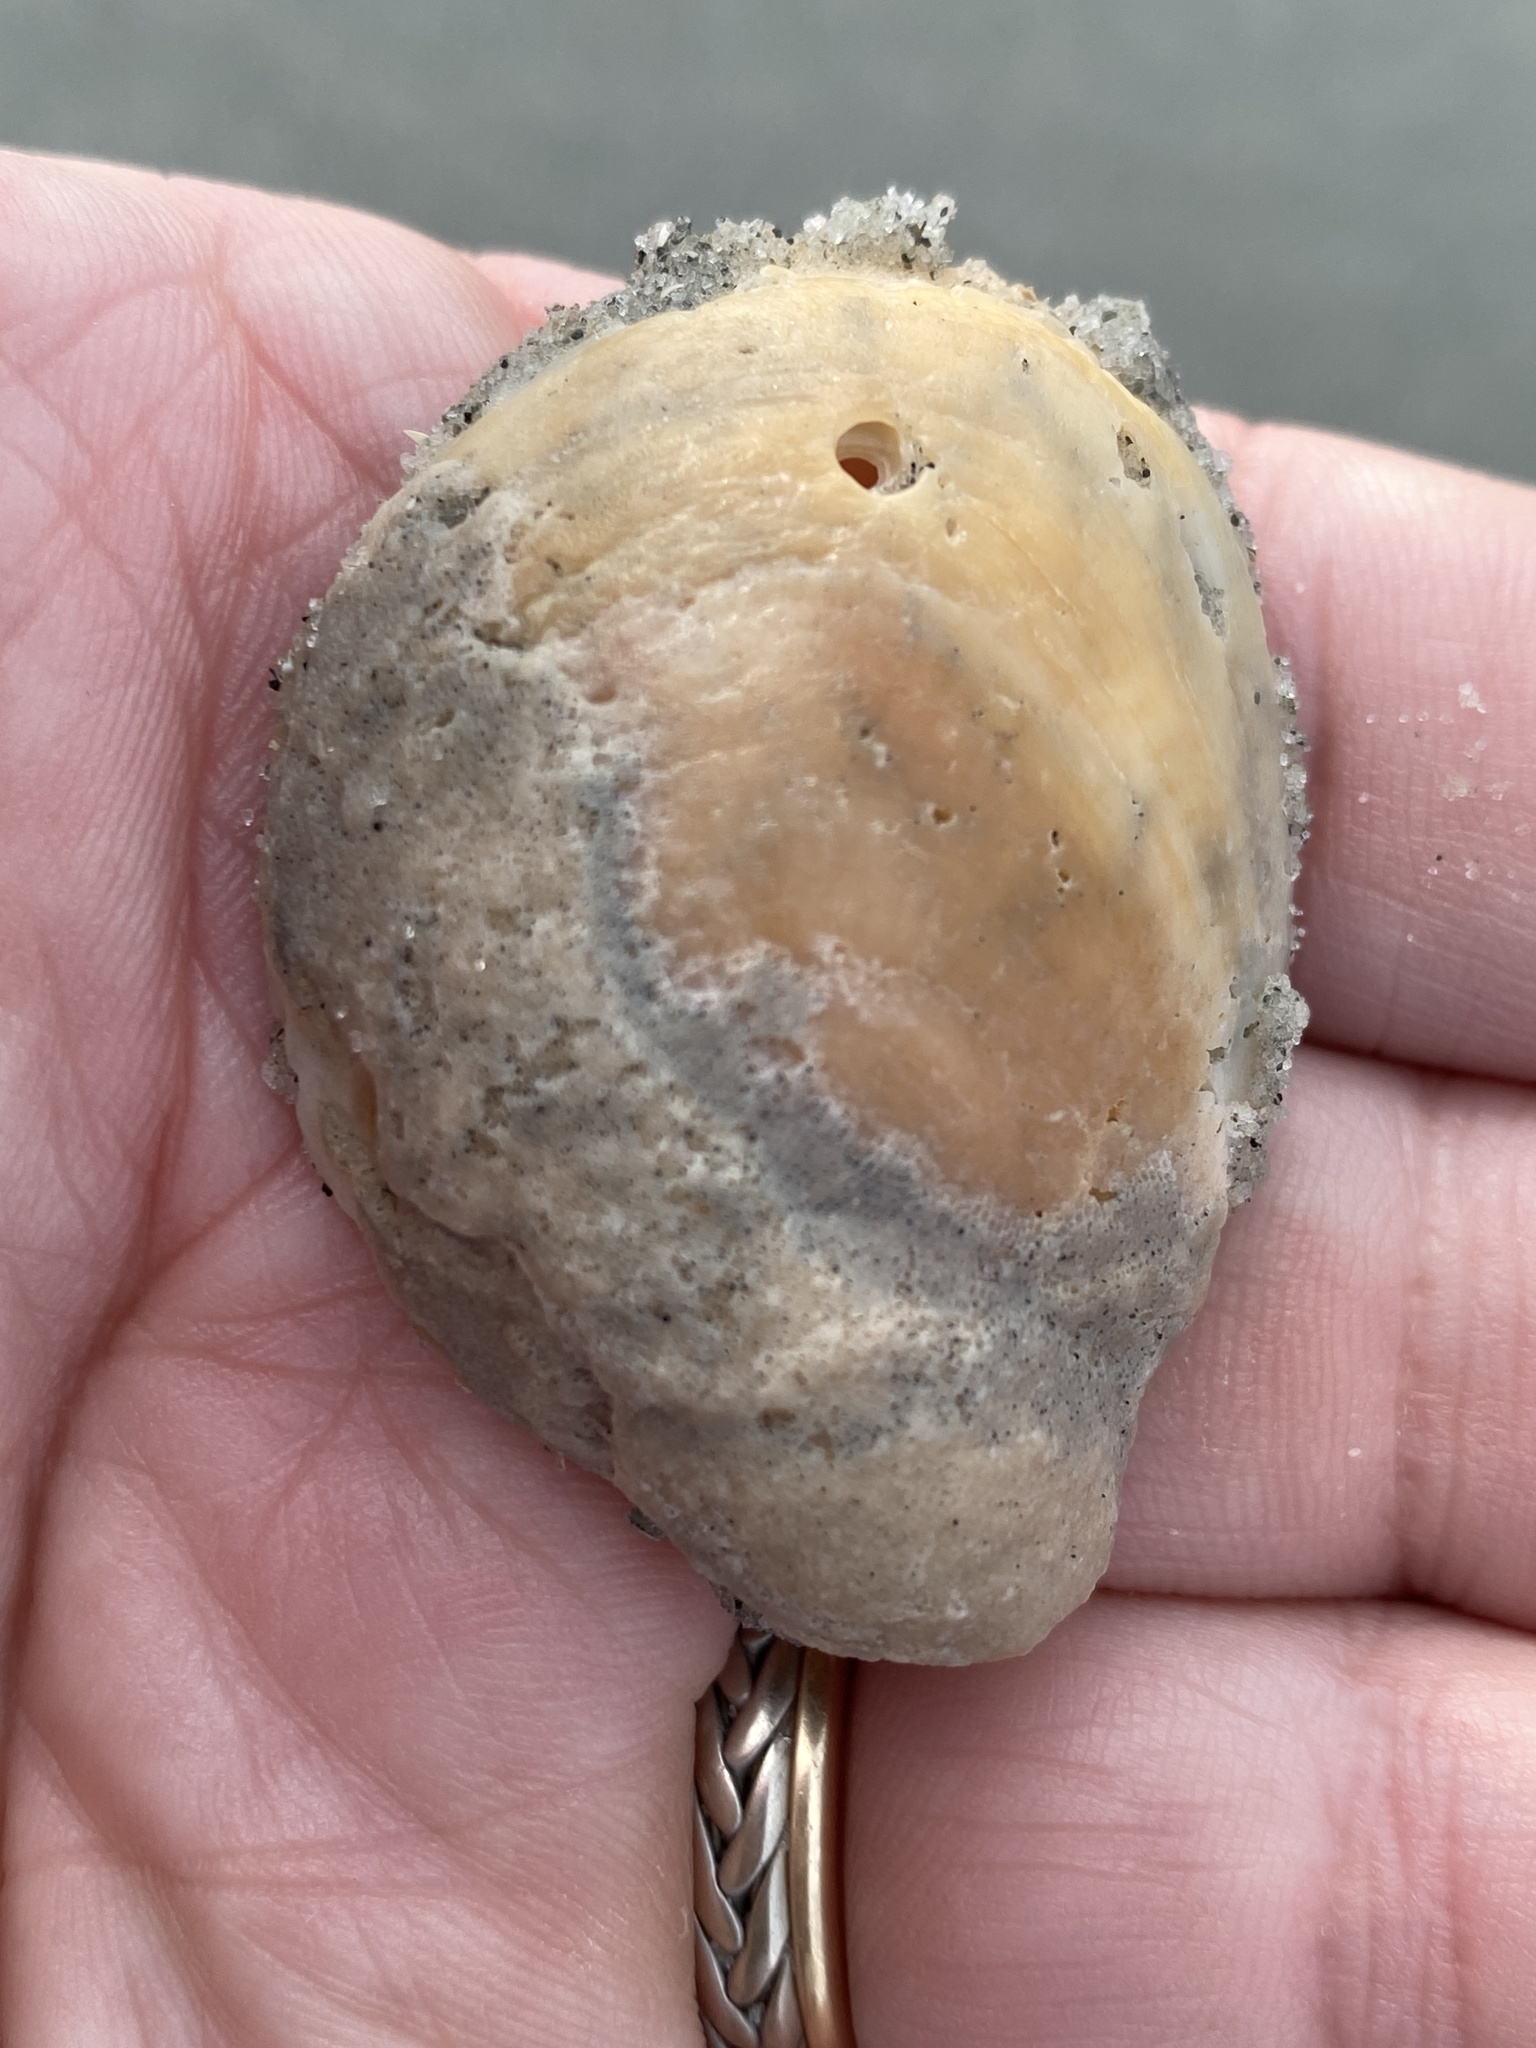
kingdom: Animalia
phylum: Mollusca
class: Gastropoda
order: Littorinimorpha
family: Calyptraeidae
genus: Crepidula
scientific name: Crepidula fornicata
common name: Slipper limpet
